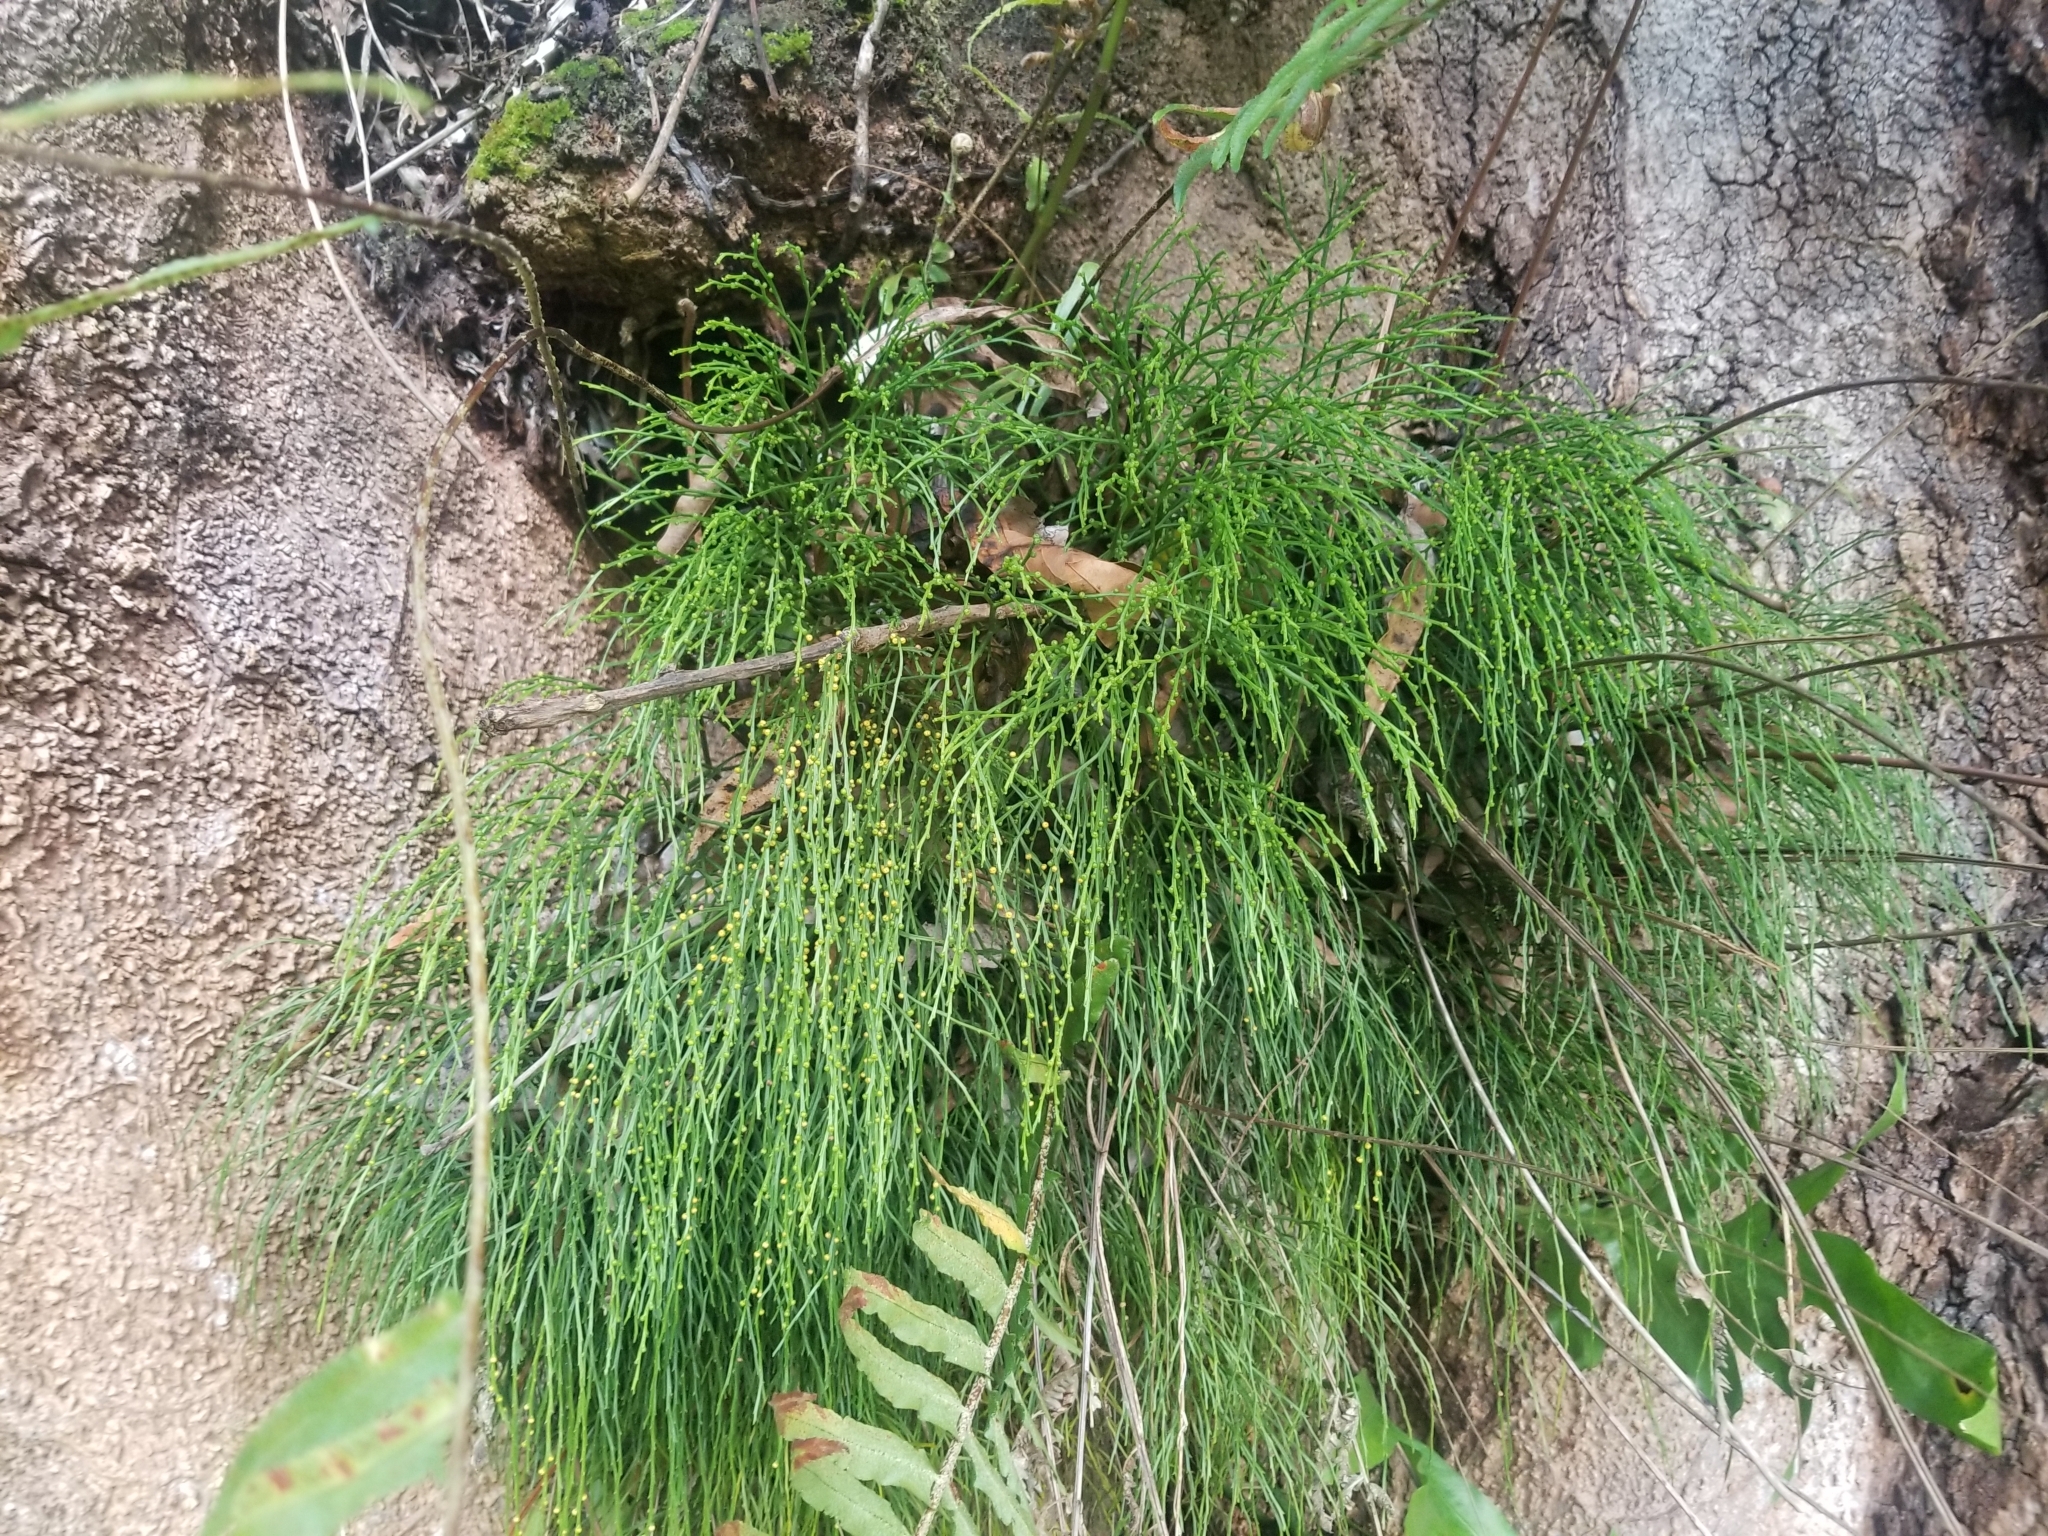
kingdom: Plantae
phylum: Tracheophyta
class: Polypodiopsida
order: Psilotales
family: Psilotaceae
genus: Psilotum
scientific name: Psilotum nudum
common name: Skeleton fork fern
